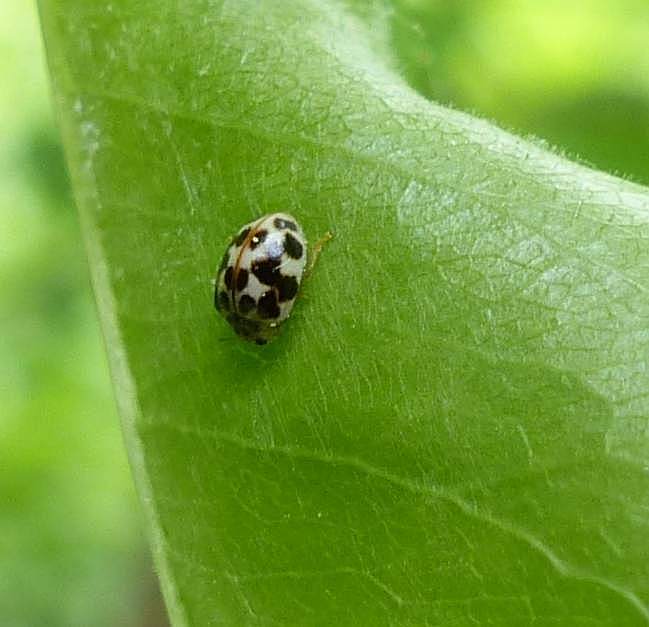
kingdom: Animalia
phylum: Arthropoda
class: Insecta
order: Coleoptera
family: Coccinellidae
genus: Psyllobora
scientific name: Psyllobora vigintimaculata
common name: Ladybird beetle
